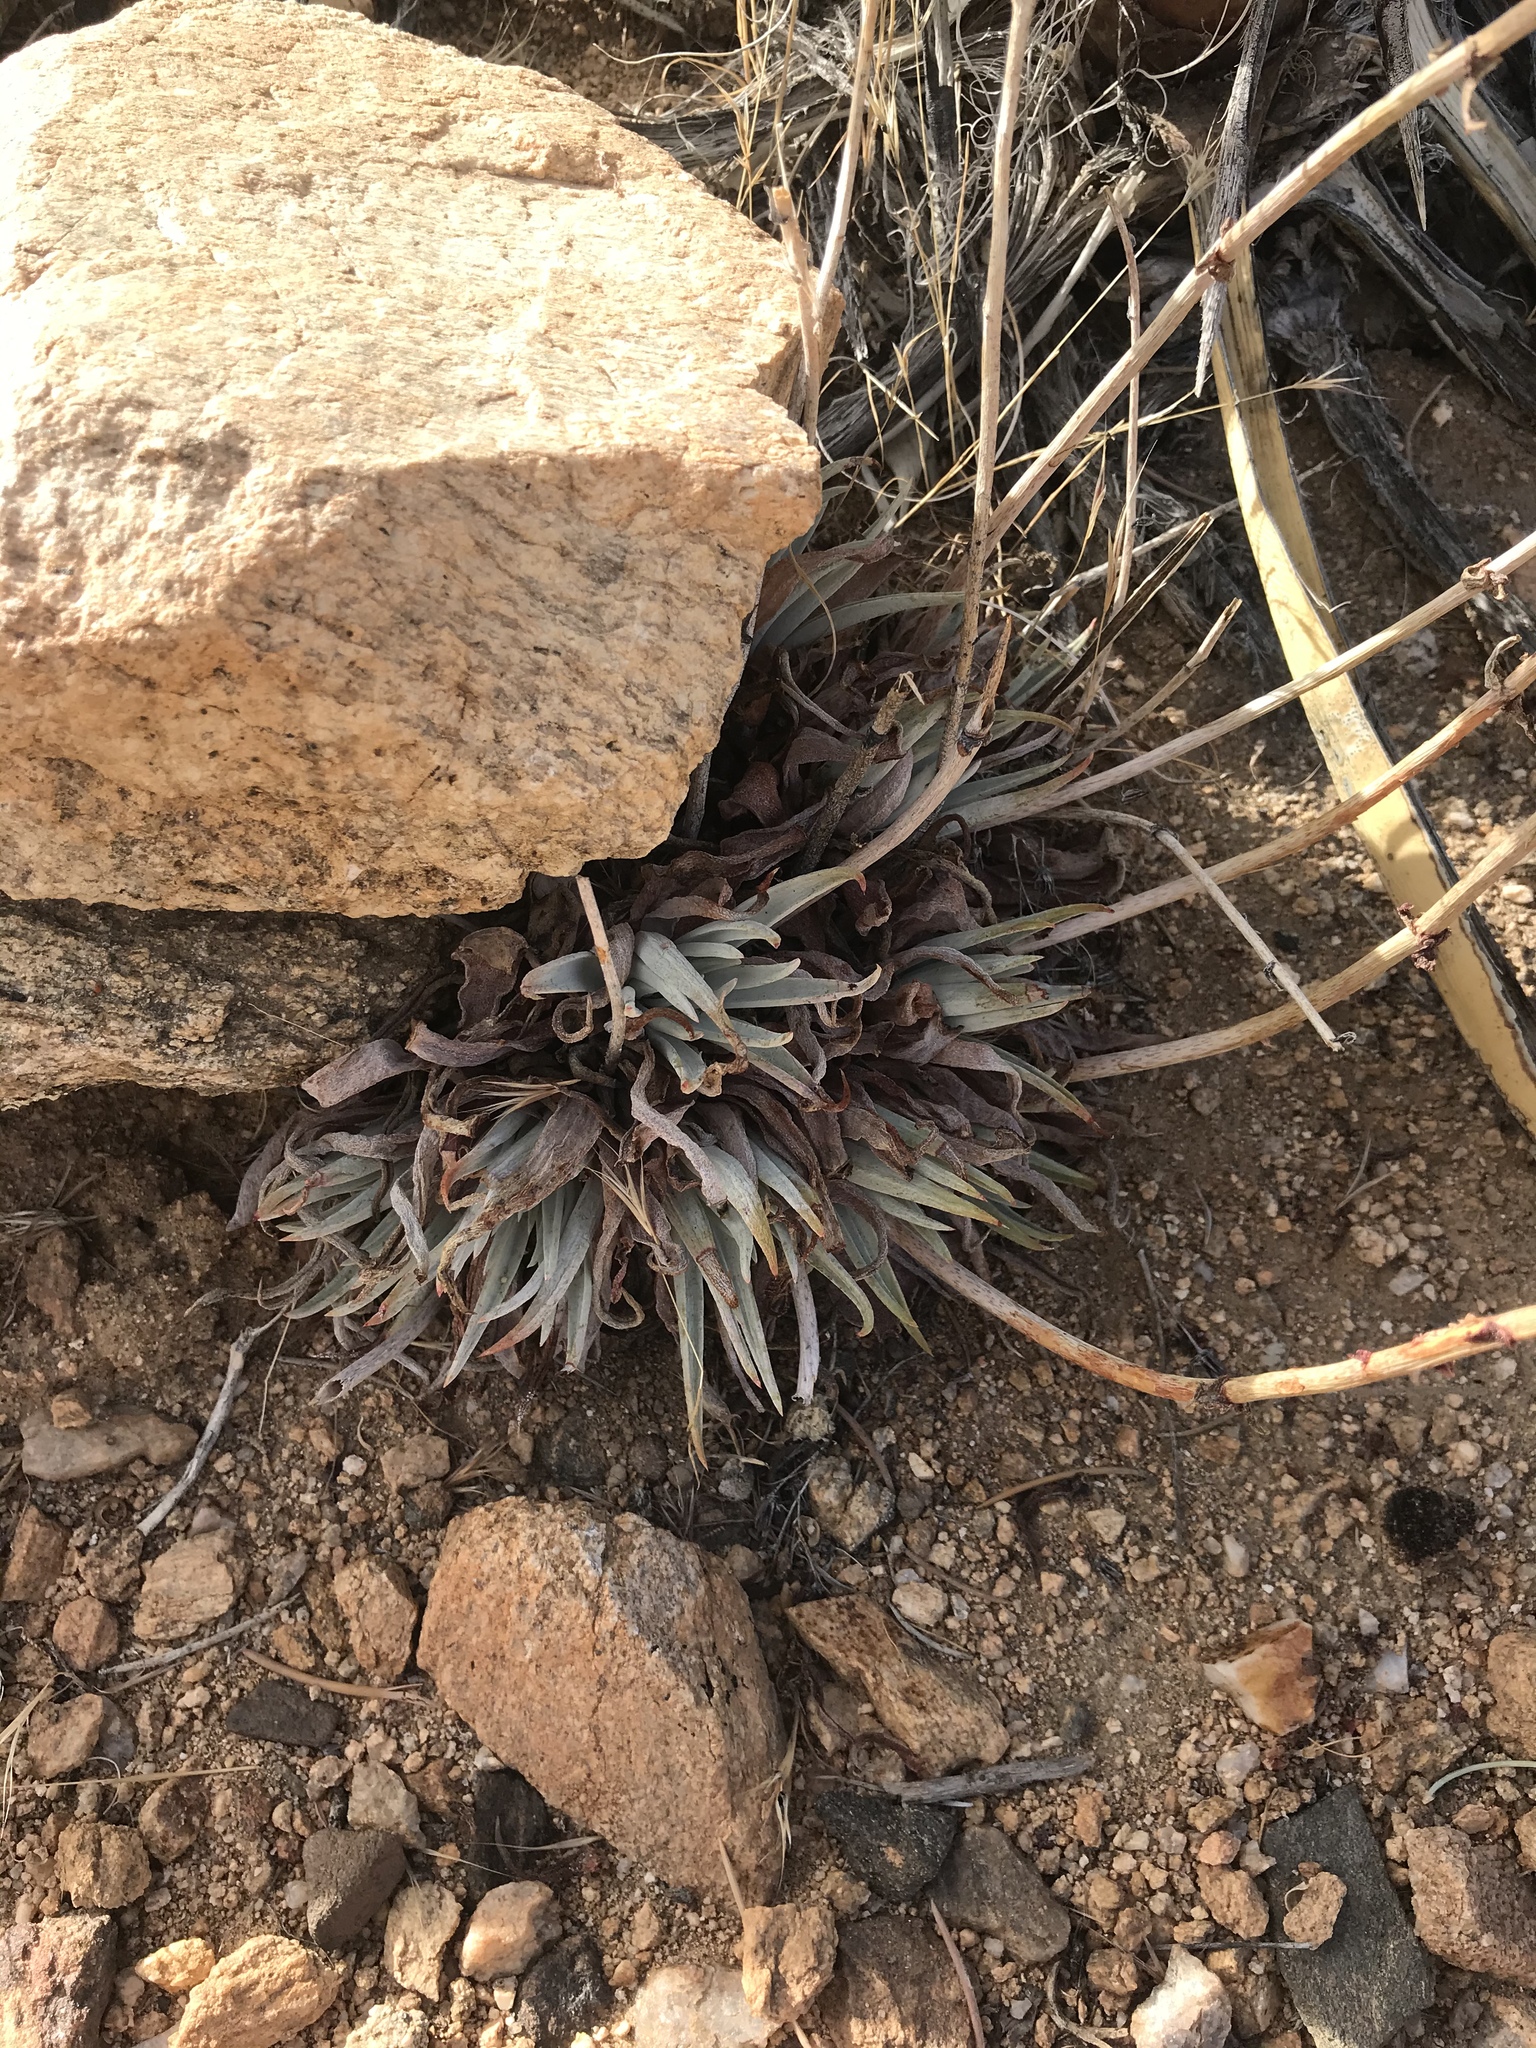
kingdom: Plantae
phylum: Tracheophyta
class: Magnoliopsida
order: Saxifragales
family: Crassulaceae
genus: Dudleya
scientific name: Dudleya saxosa
